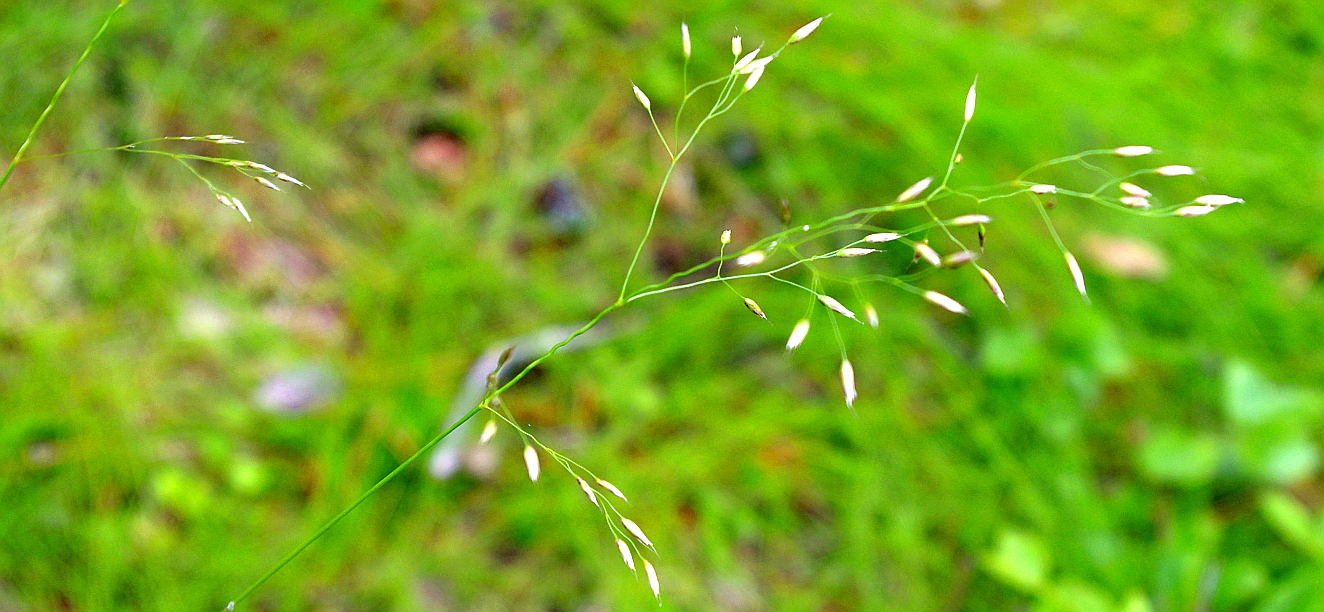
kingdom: Plantae
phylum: Tracheophyta
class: Liliopsida
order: Poales
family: Poaceae
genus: Avenella
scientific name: Avenella flexuosa
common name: Wavy hairgrass
